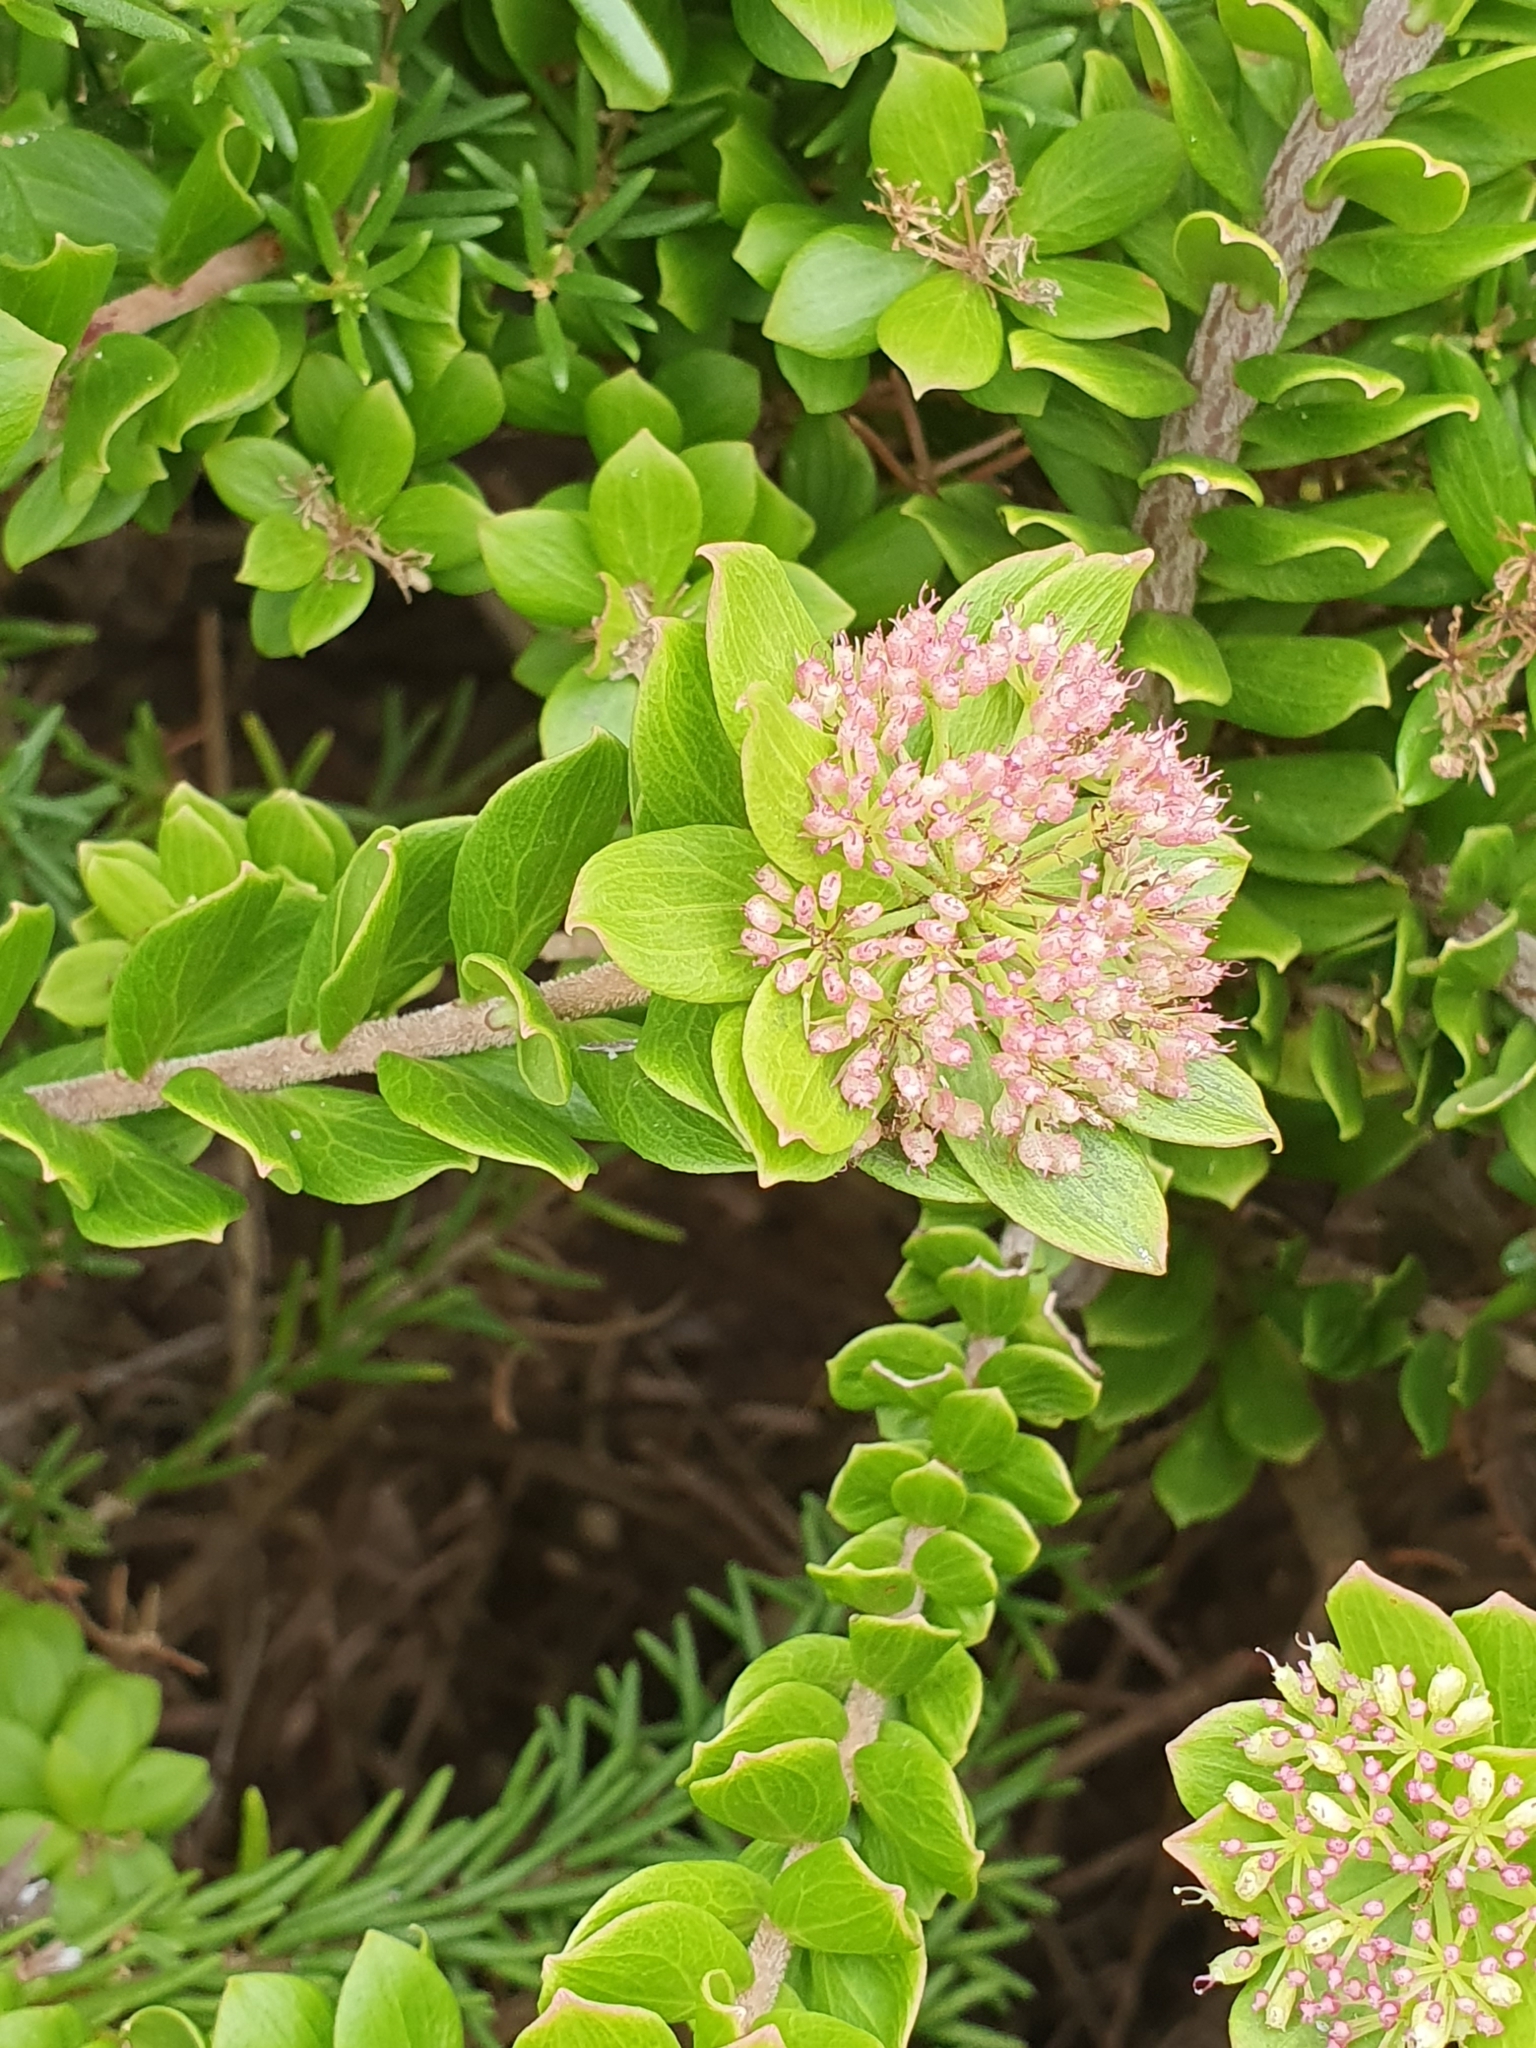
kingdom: Plantae
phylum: Tracheophyta
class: Magnoliopsida
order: Apiales
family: Apiaceae
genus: Platysace
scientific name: Platysace lanceolata
